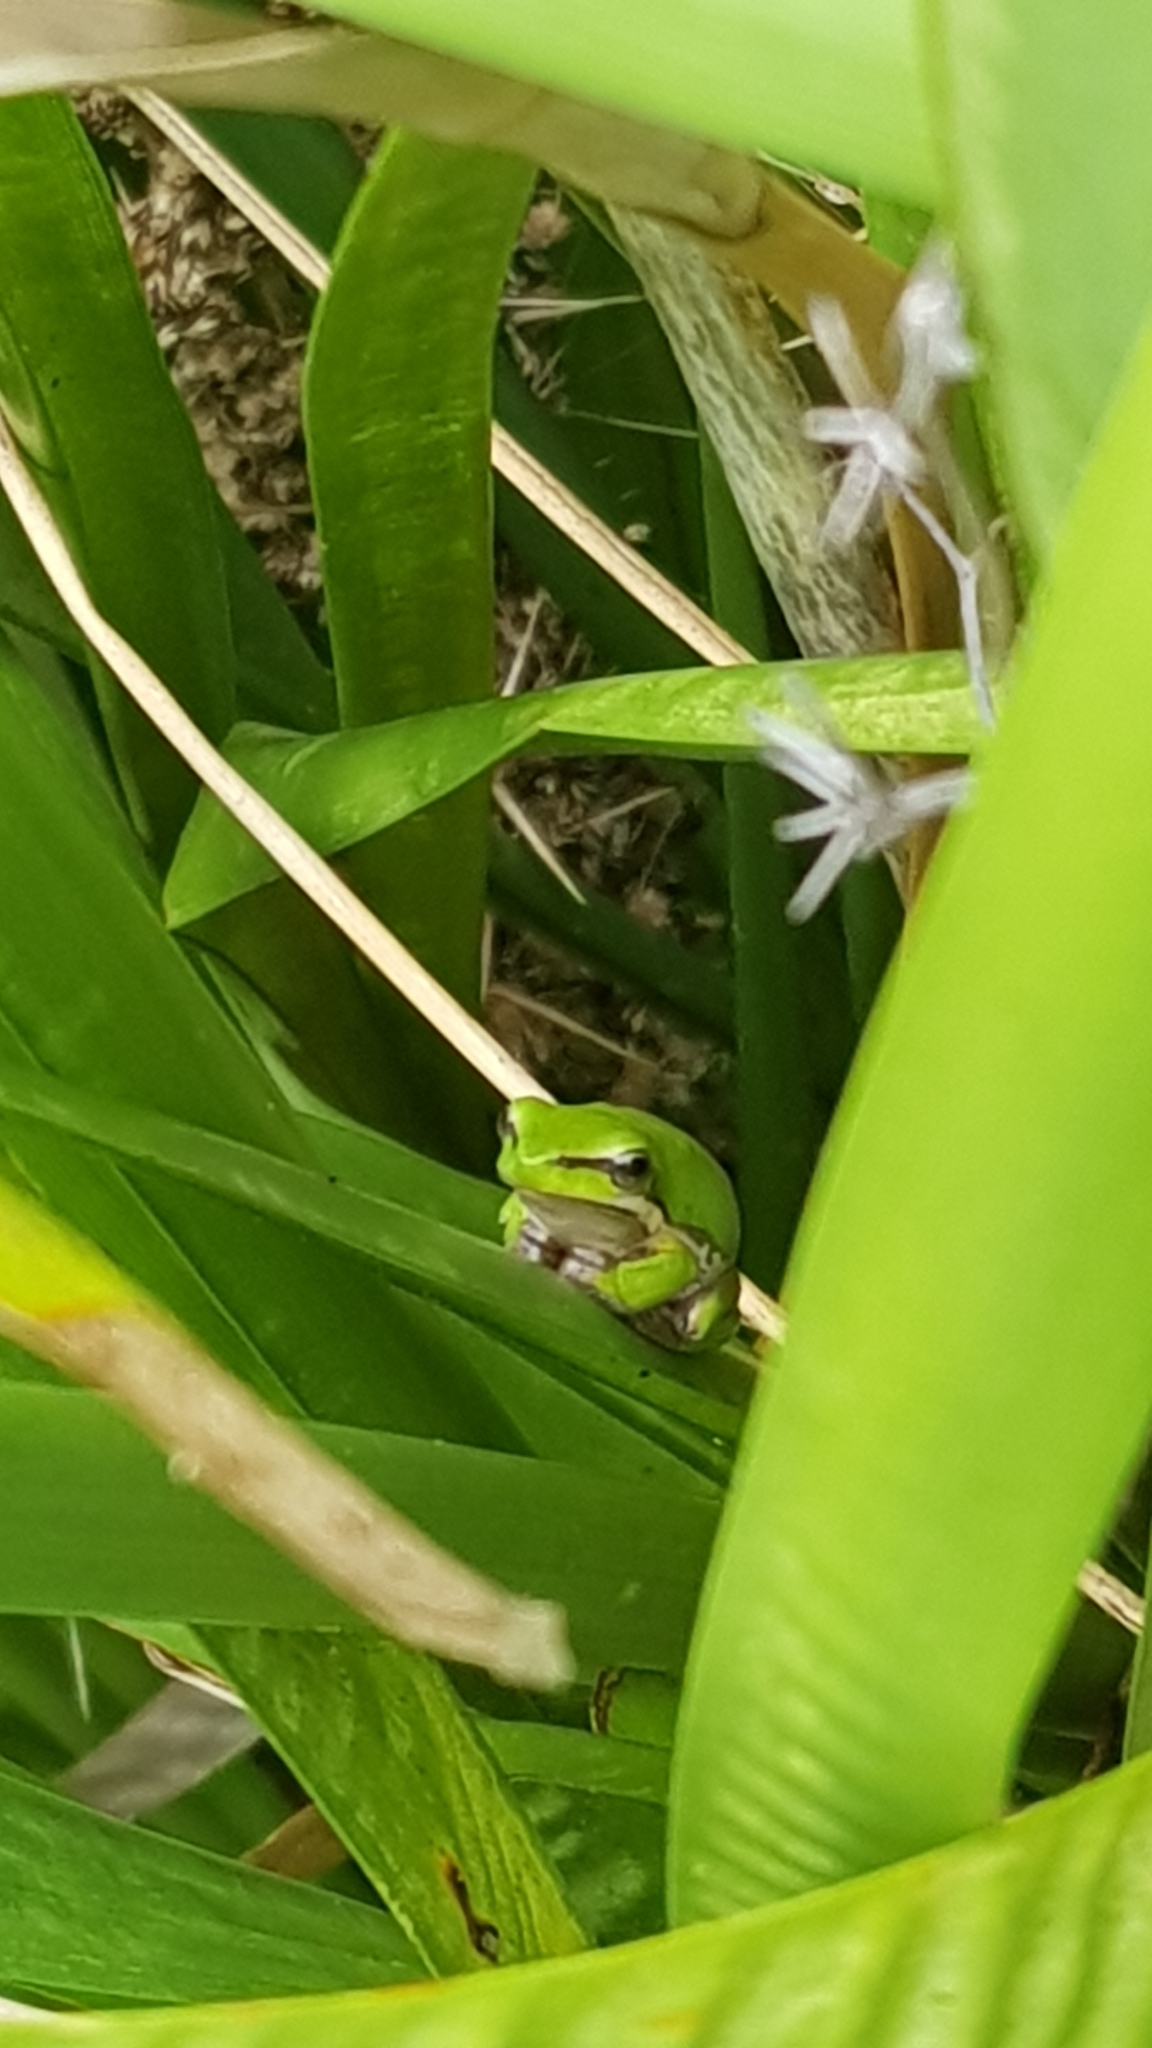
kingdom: Animalia
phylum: Chordata
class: Amphibia
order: Anura
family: Pelodryadidae
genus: Litoria
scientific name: Litoria fallax
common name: Eastern dwarf treefrog
